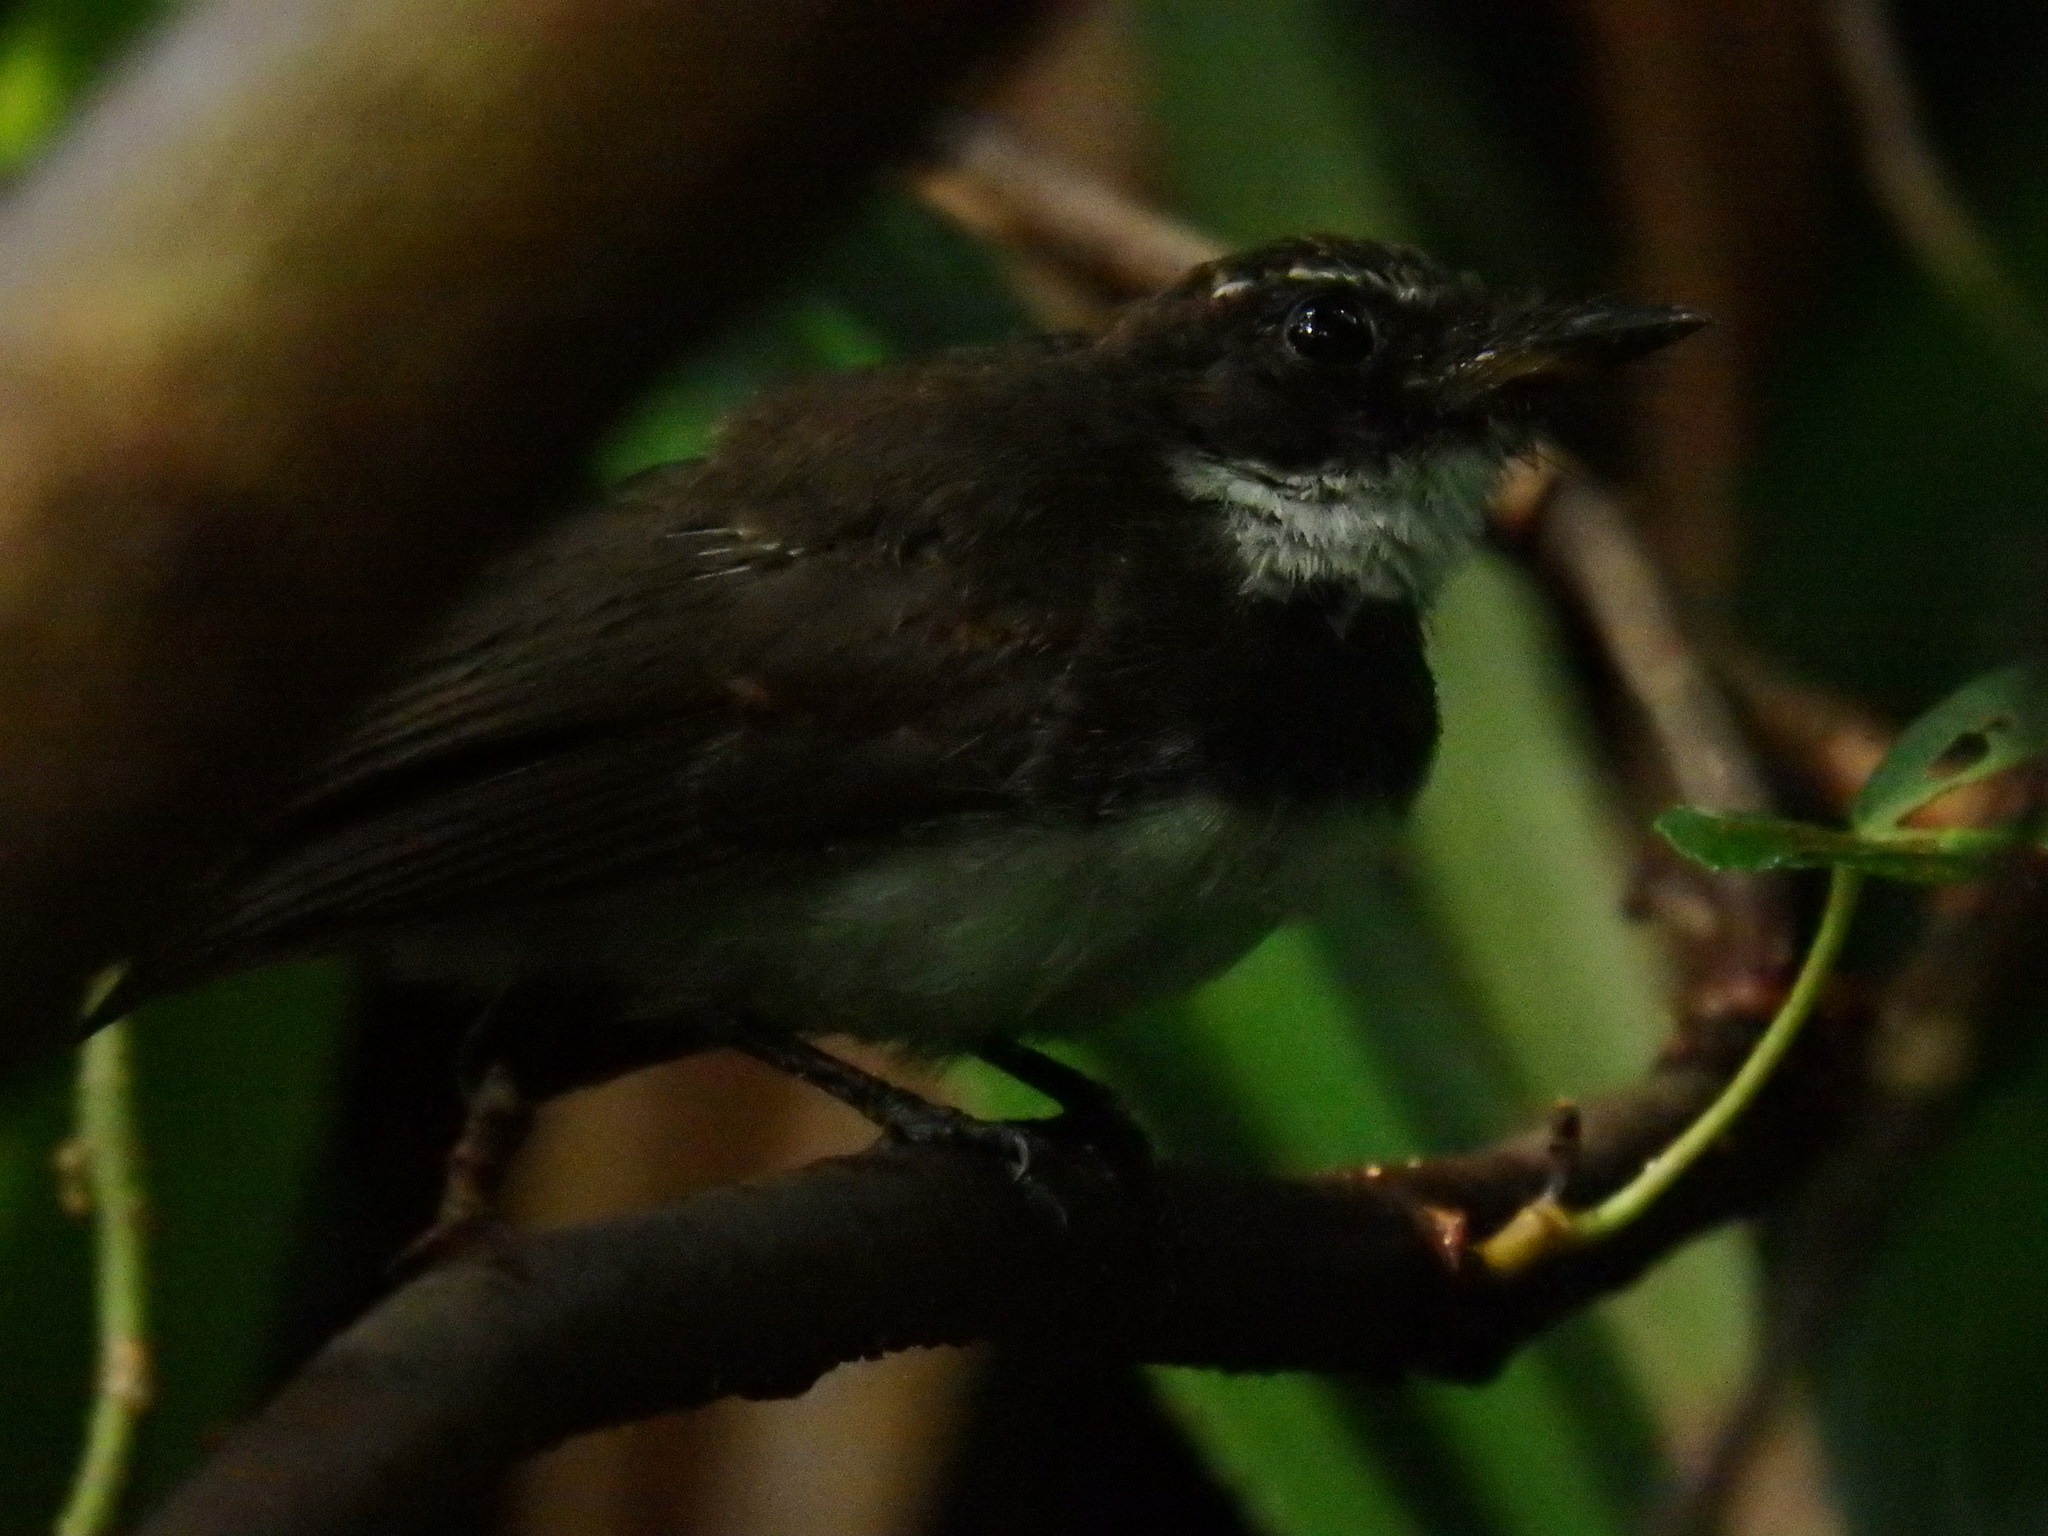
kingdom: Animalia
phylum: Chordata
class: Aves
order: Passeriformes
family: Rhipiduridae
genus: Rhipidura
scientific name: Rhipidura javanica
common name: Pied fantail
